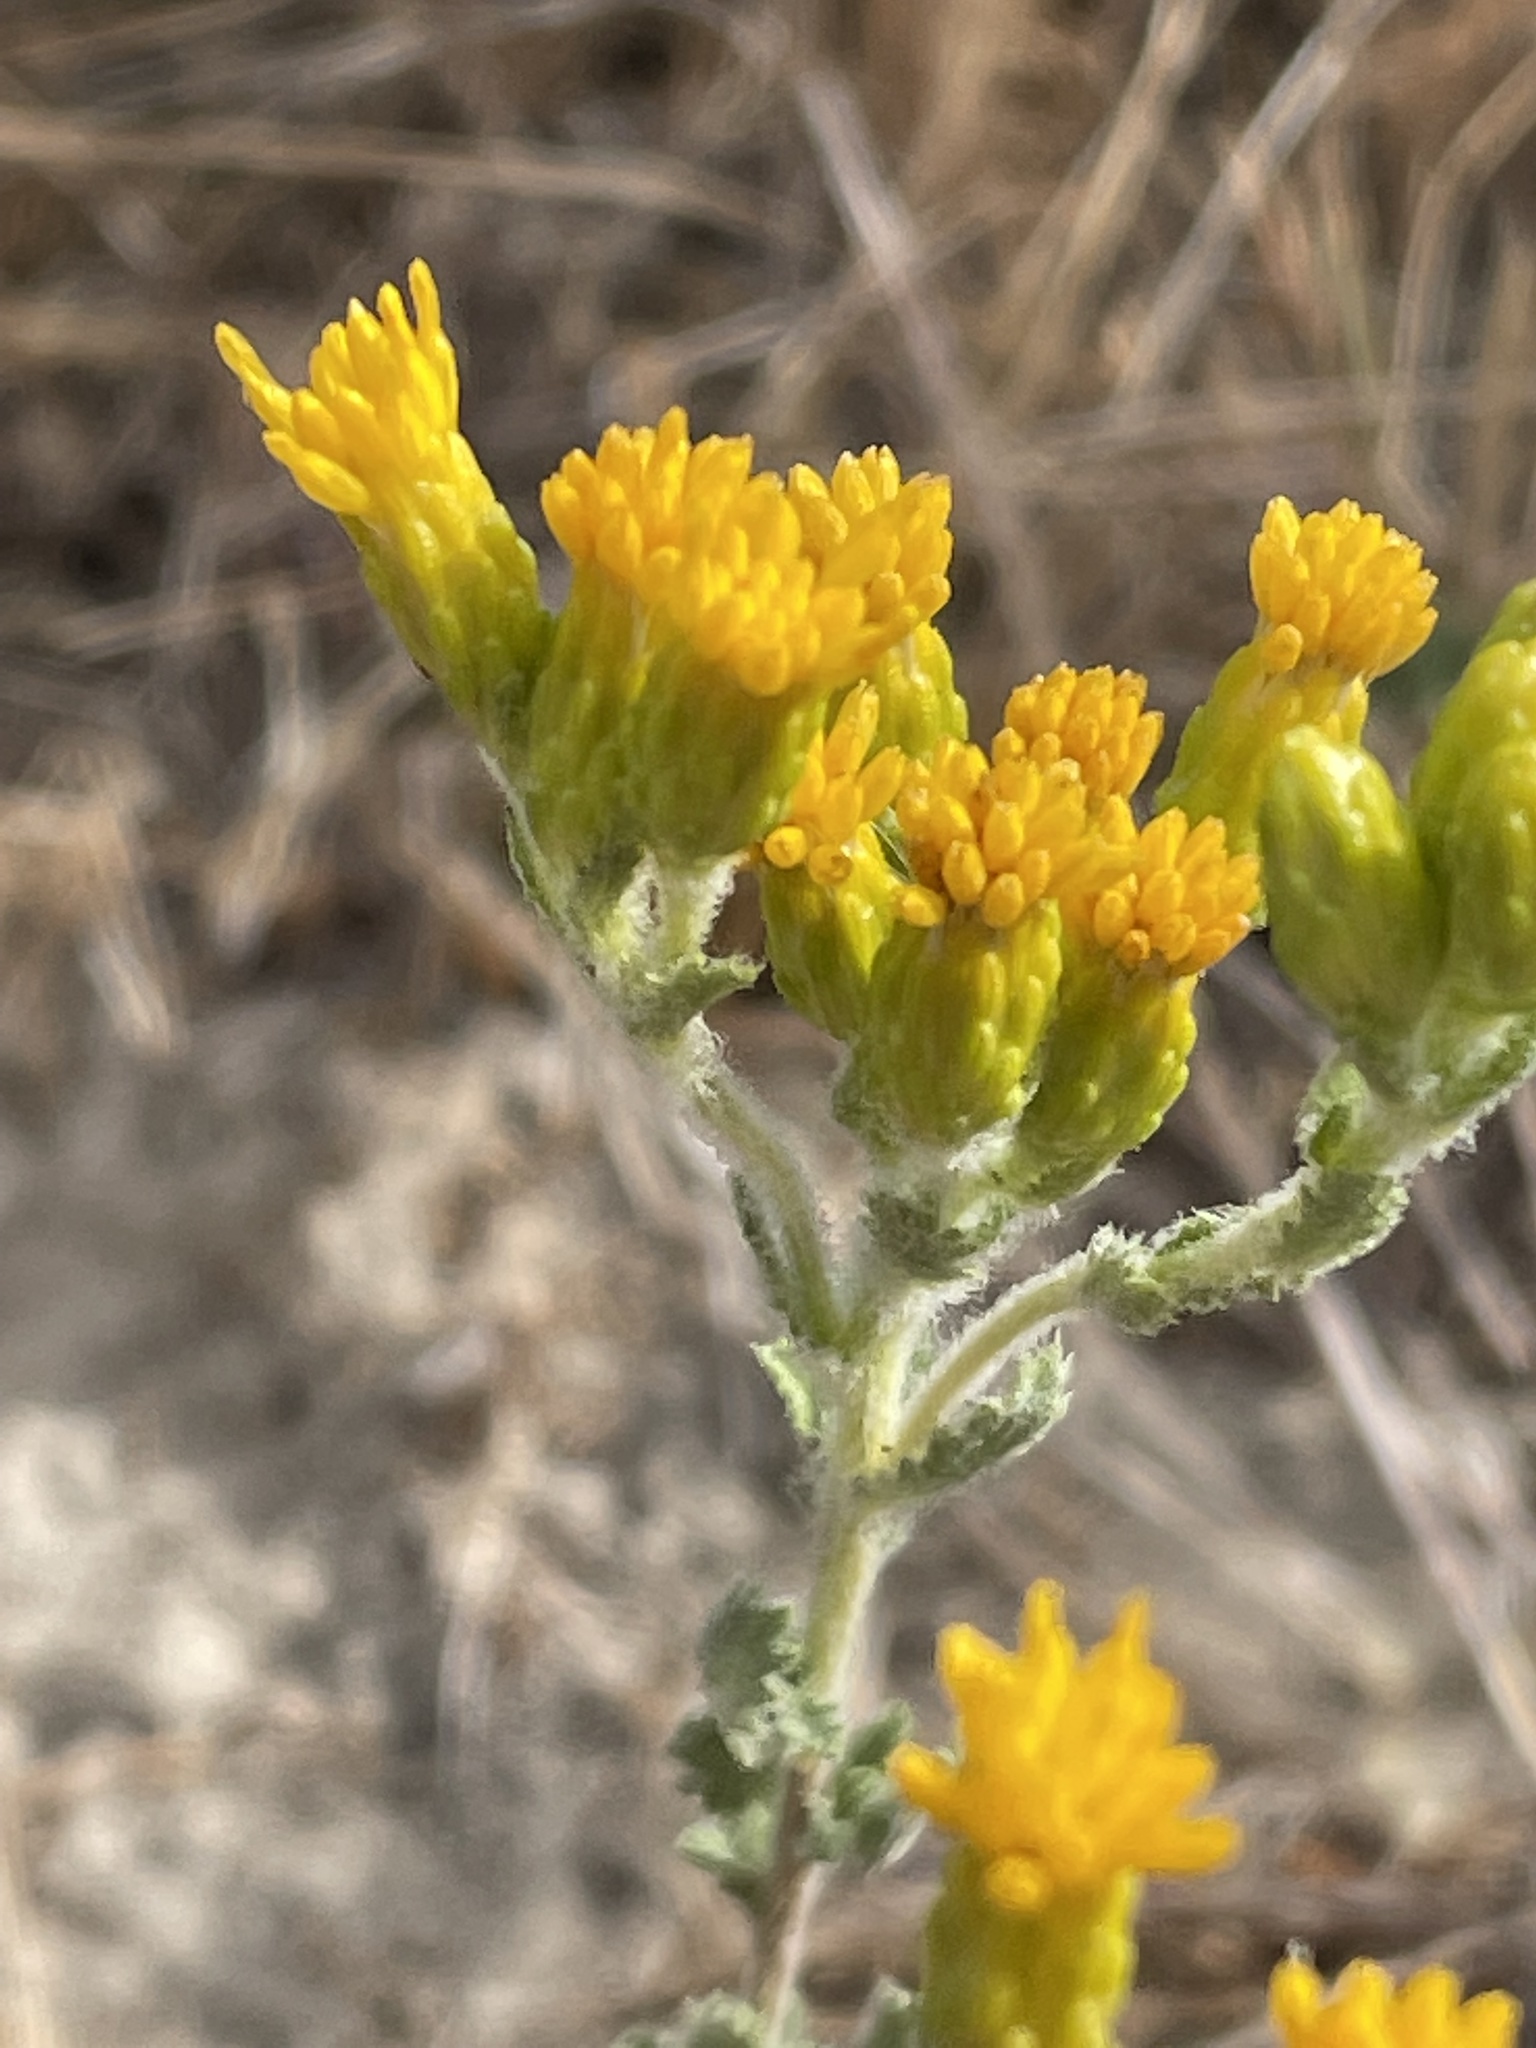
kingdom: Plantae
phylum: Tracheophyta
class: Magnoliopsida
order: Asterales
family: Asteraceae
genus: Isocoma
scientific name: Isocoma menziesii
